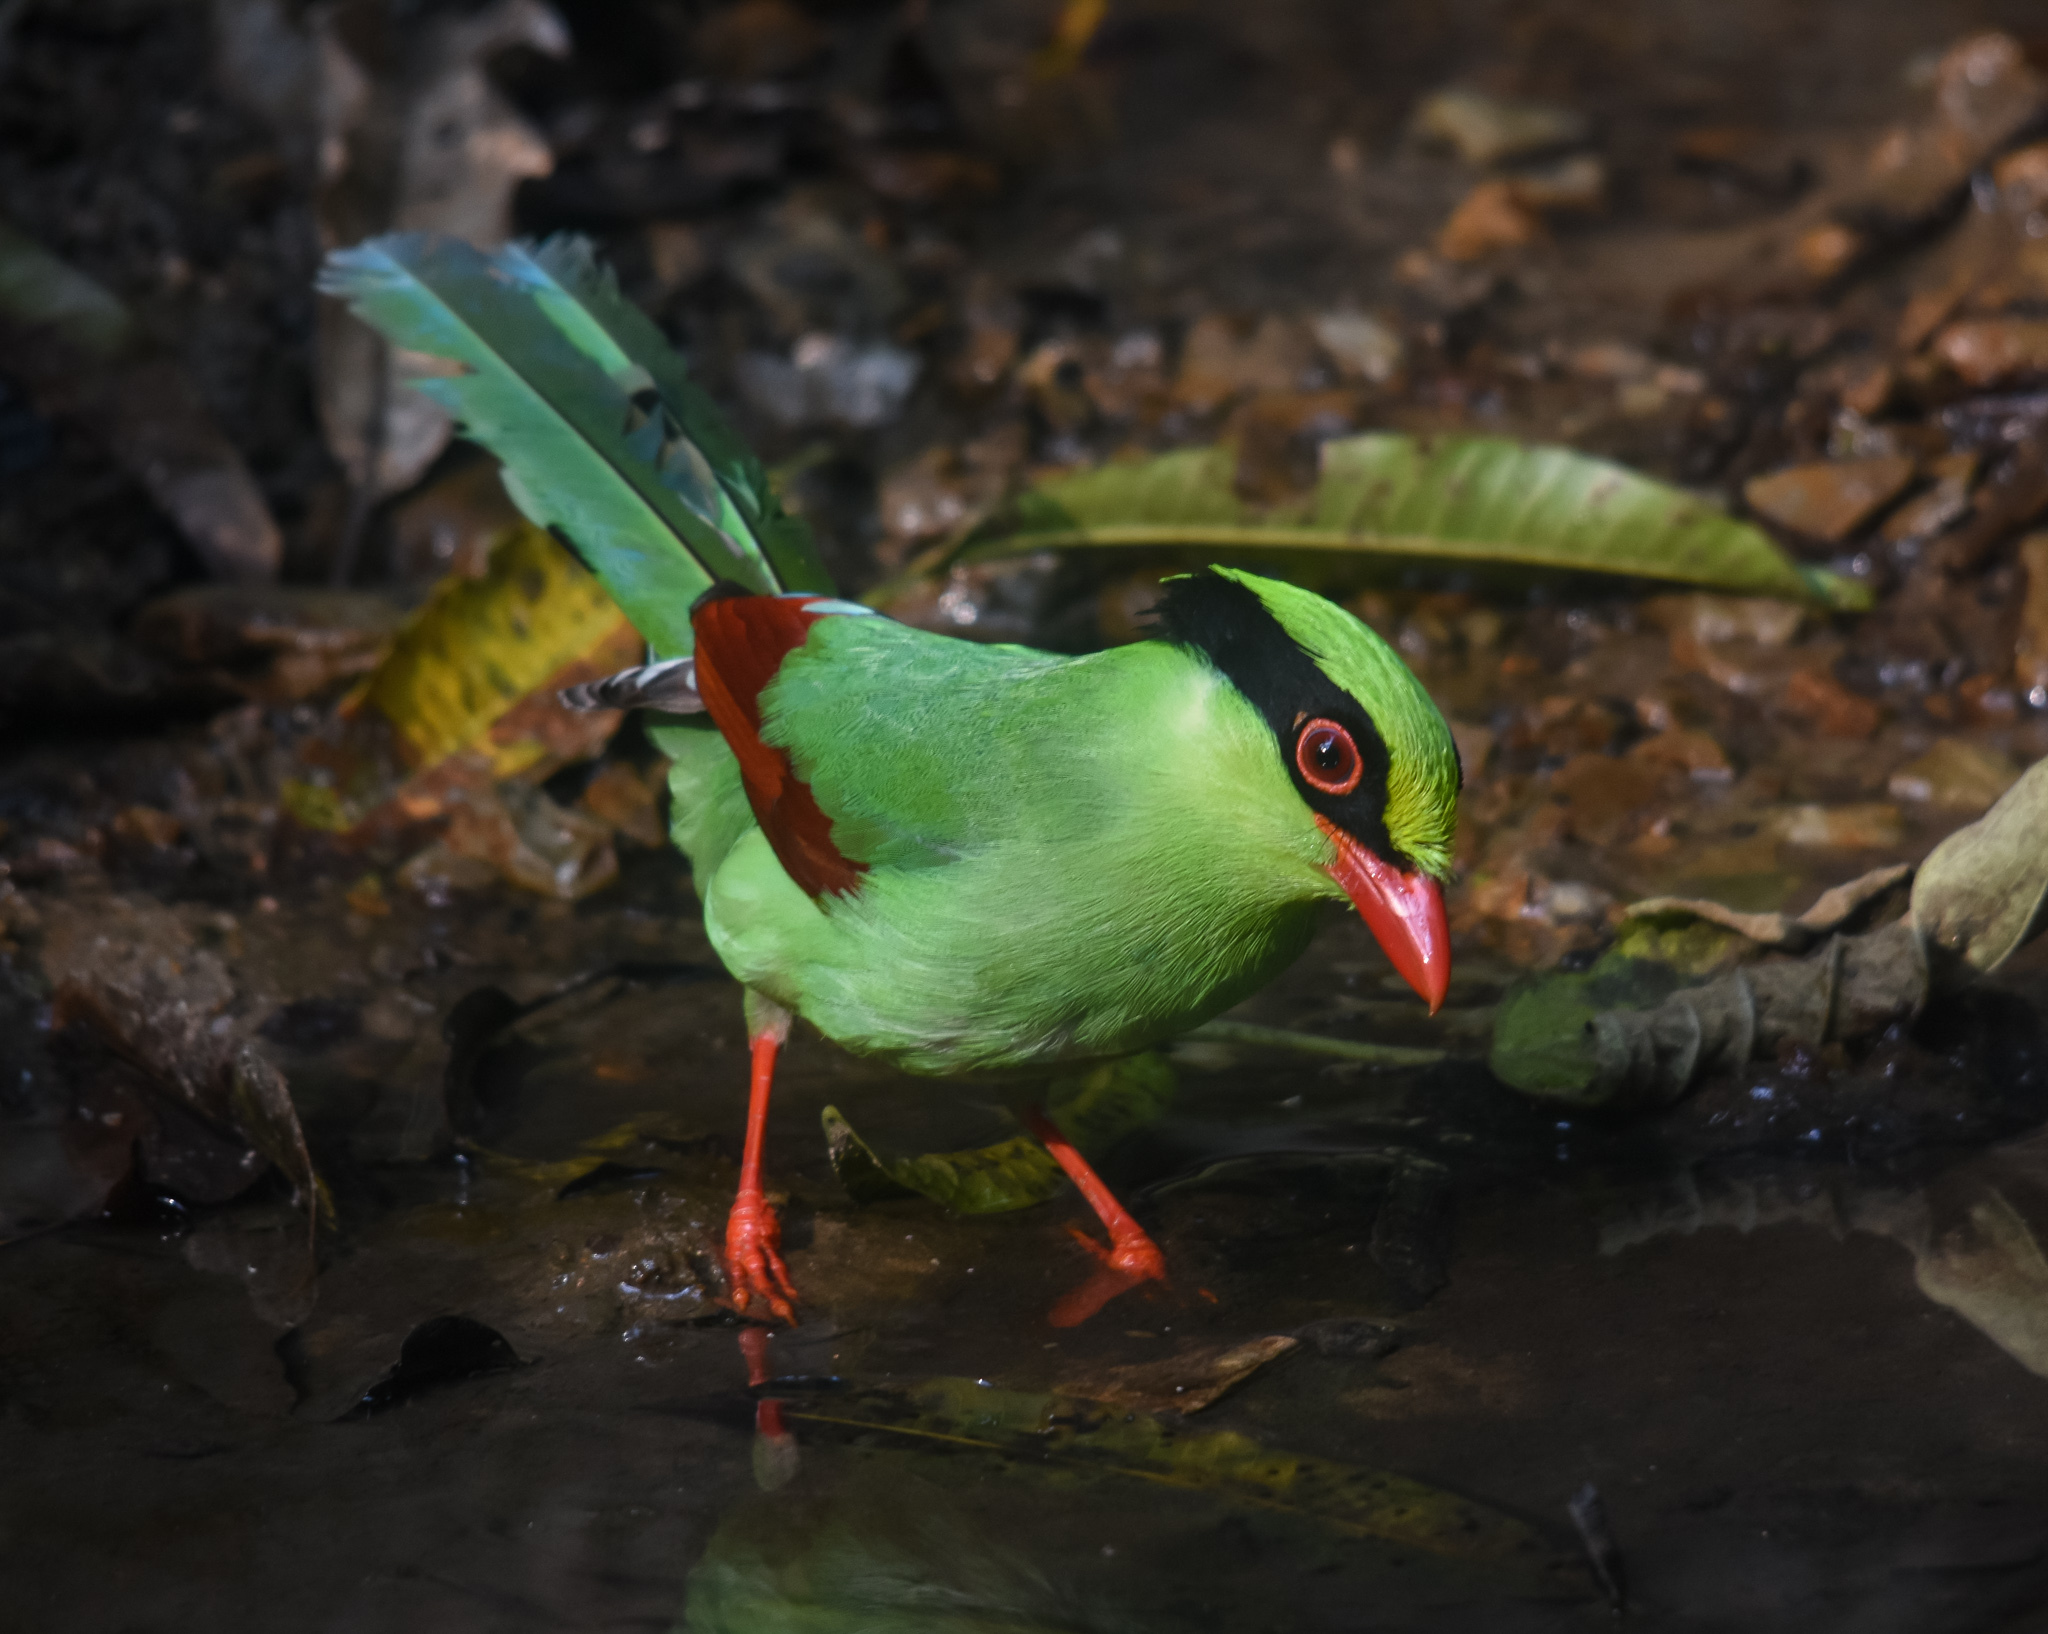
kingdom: Animalia
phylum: Chordata
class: Aves
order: Passeriformes
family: Corvidae
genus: Cissa
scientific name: Cissa chinensis
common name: Common green magpie
